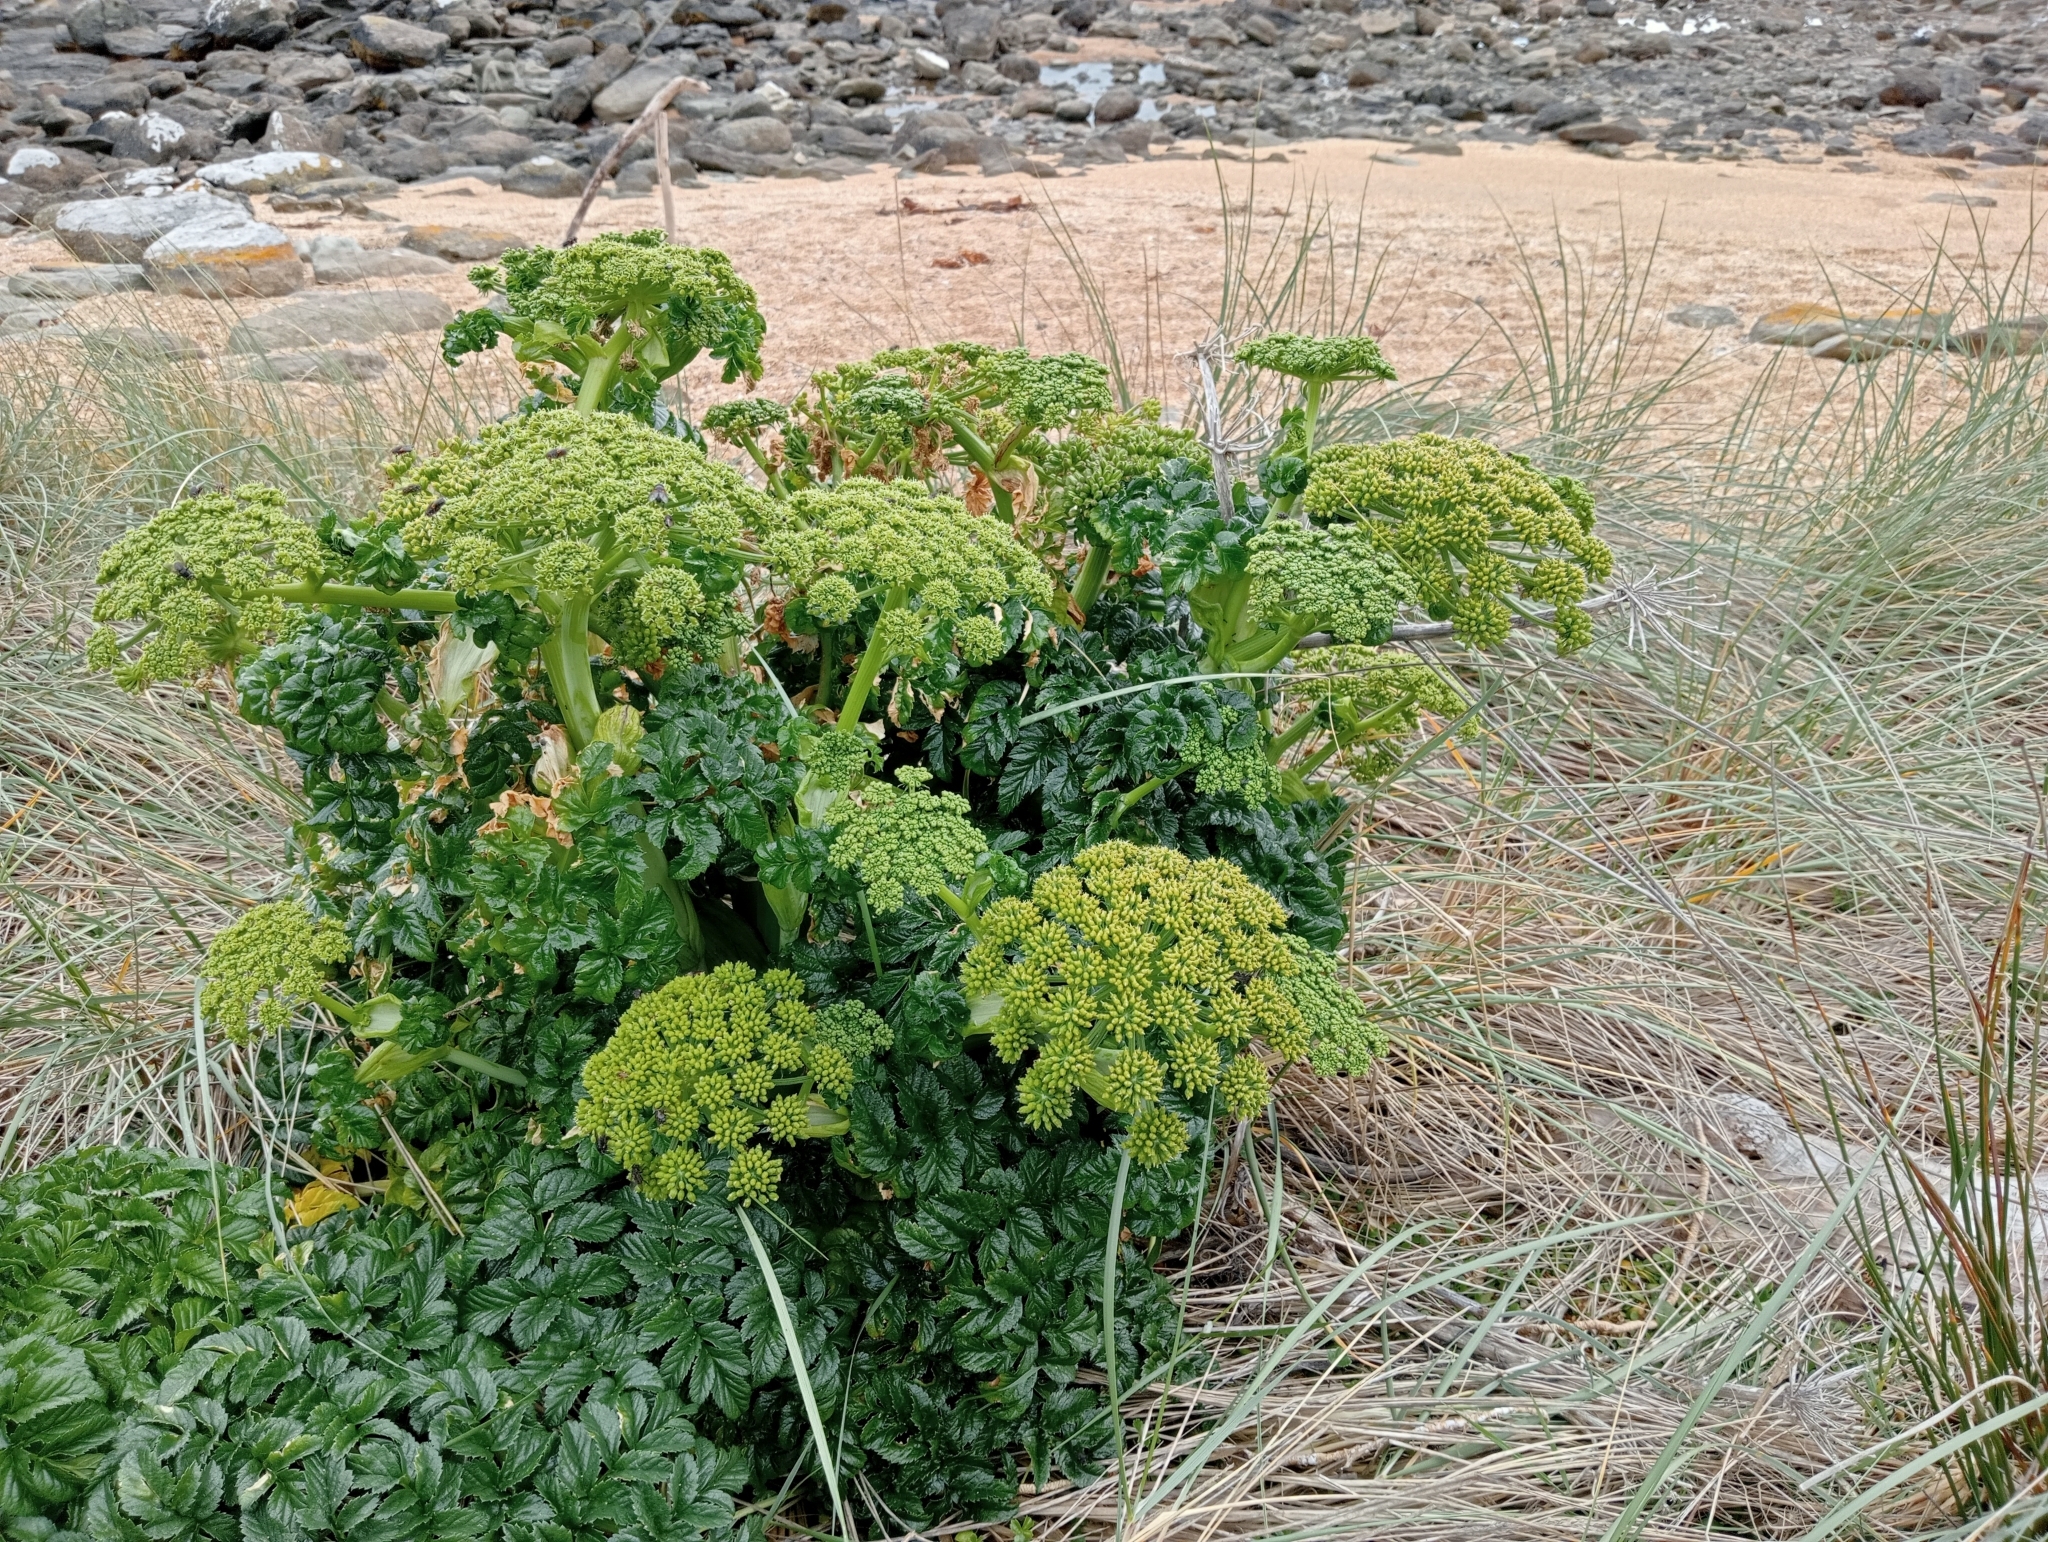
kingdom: Plantae
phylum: Tracheophyta
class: Magnoliopsida
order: Apiales
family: Apiaceae
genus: Angelica
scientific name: Angelica pachycarpa
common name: Portuguese angelica
